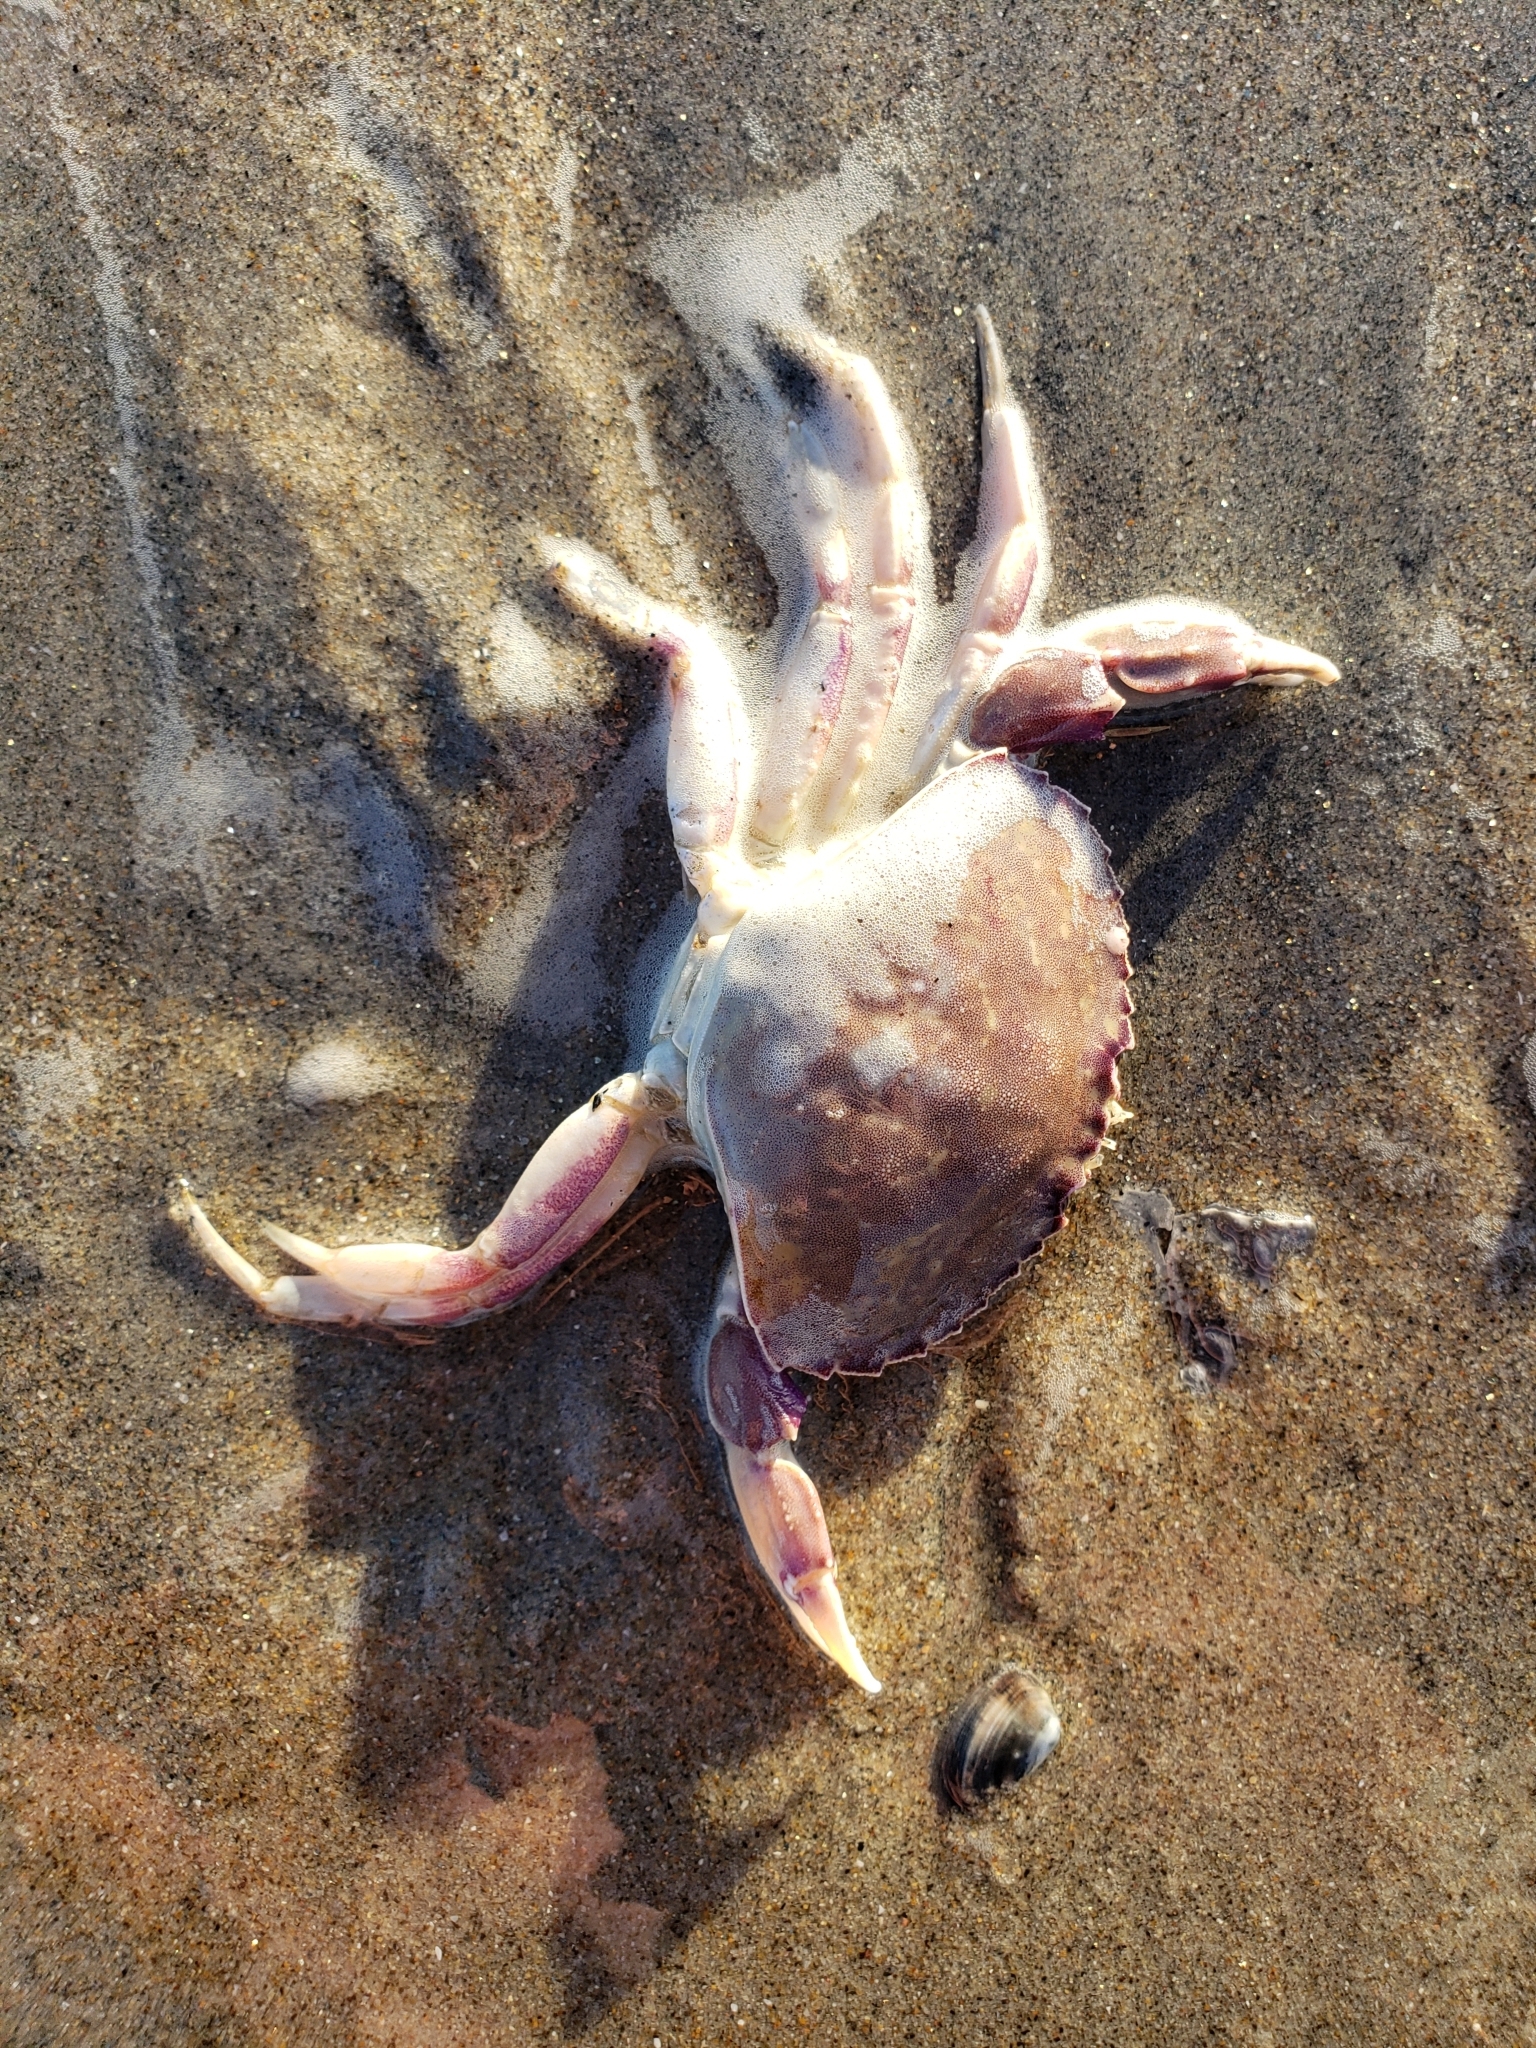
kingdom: Animalia
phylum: Arthropoda
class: Malacostraca
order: Decapoda
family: Cancridae
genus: Metacarcinus
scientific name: Metacarcinus gracilis
